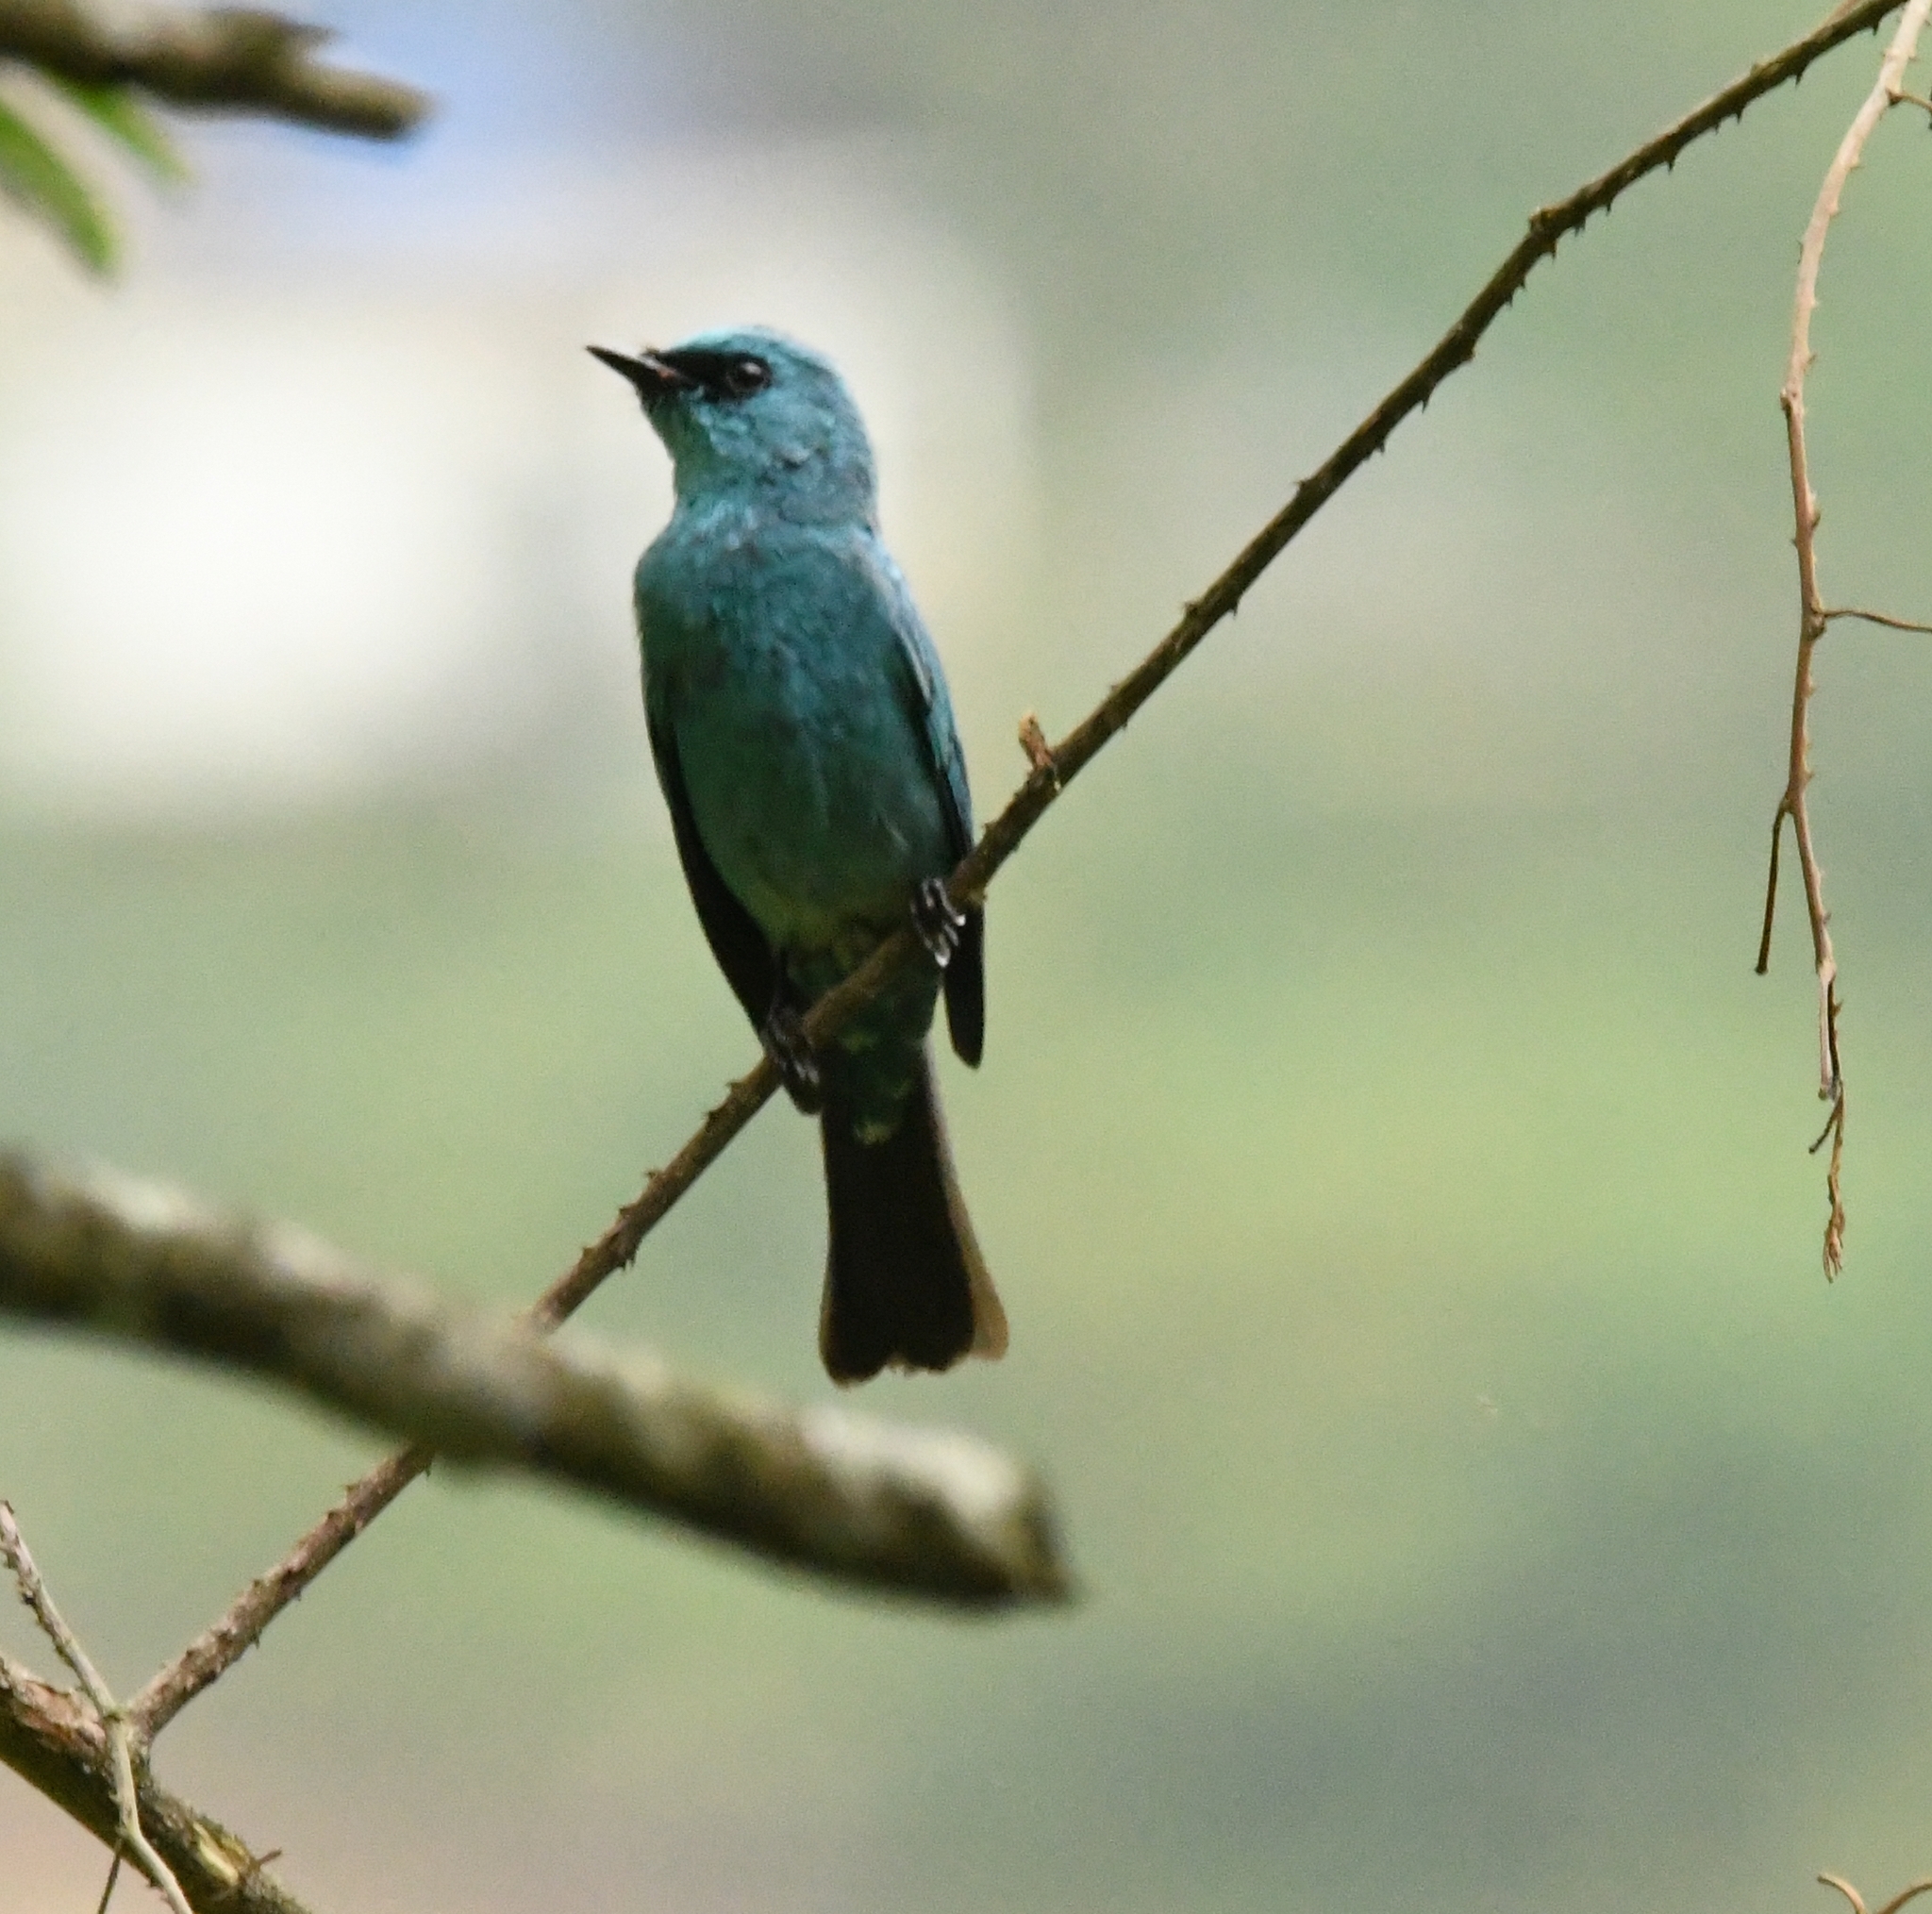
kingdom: Animalia
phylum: Chordata
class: Aves
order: Passeriformes
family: Muscicapidae
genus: Eumyias
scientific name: Eumyias thalassinus
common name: Verditer flycatcher
